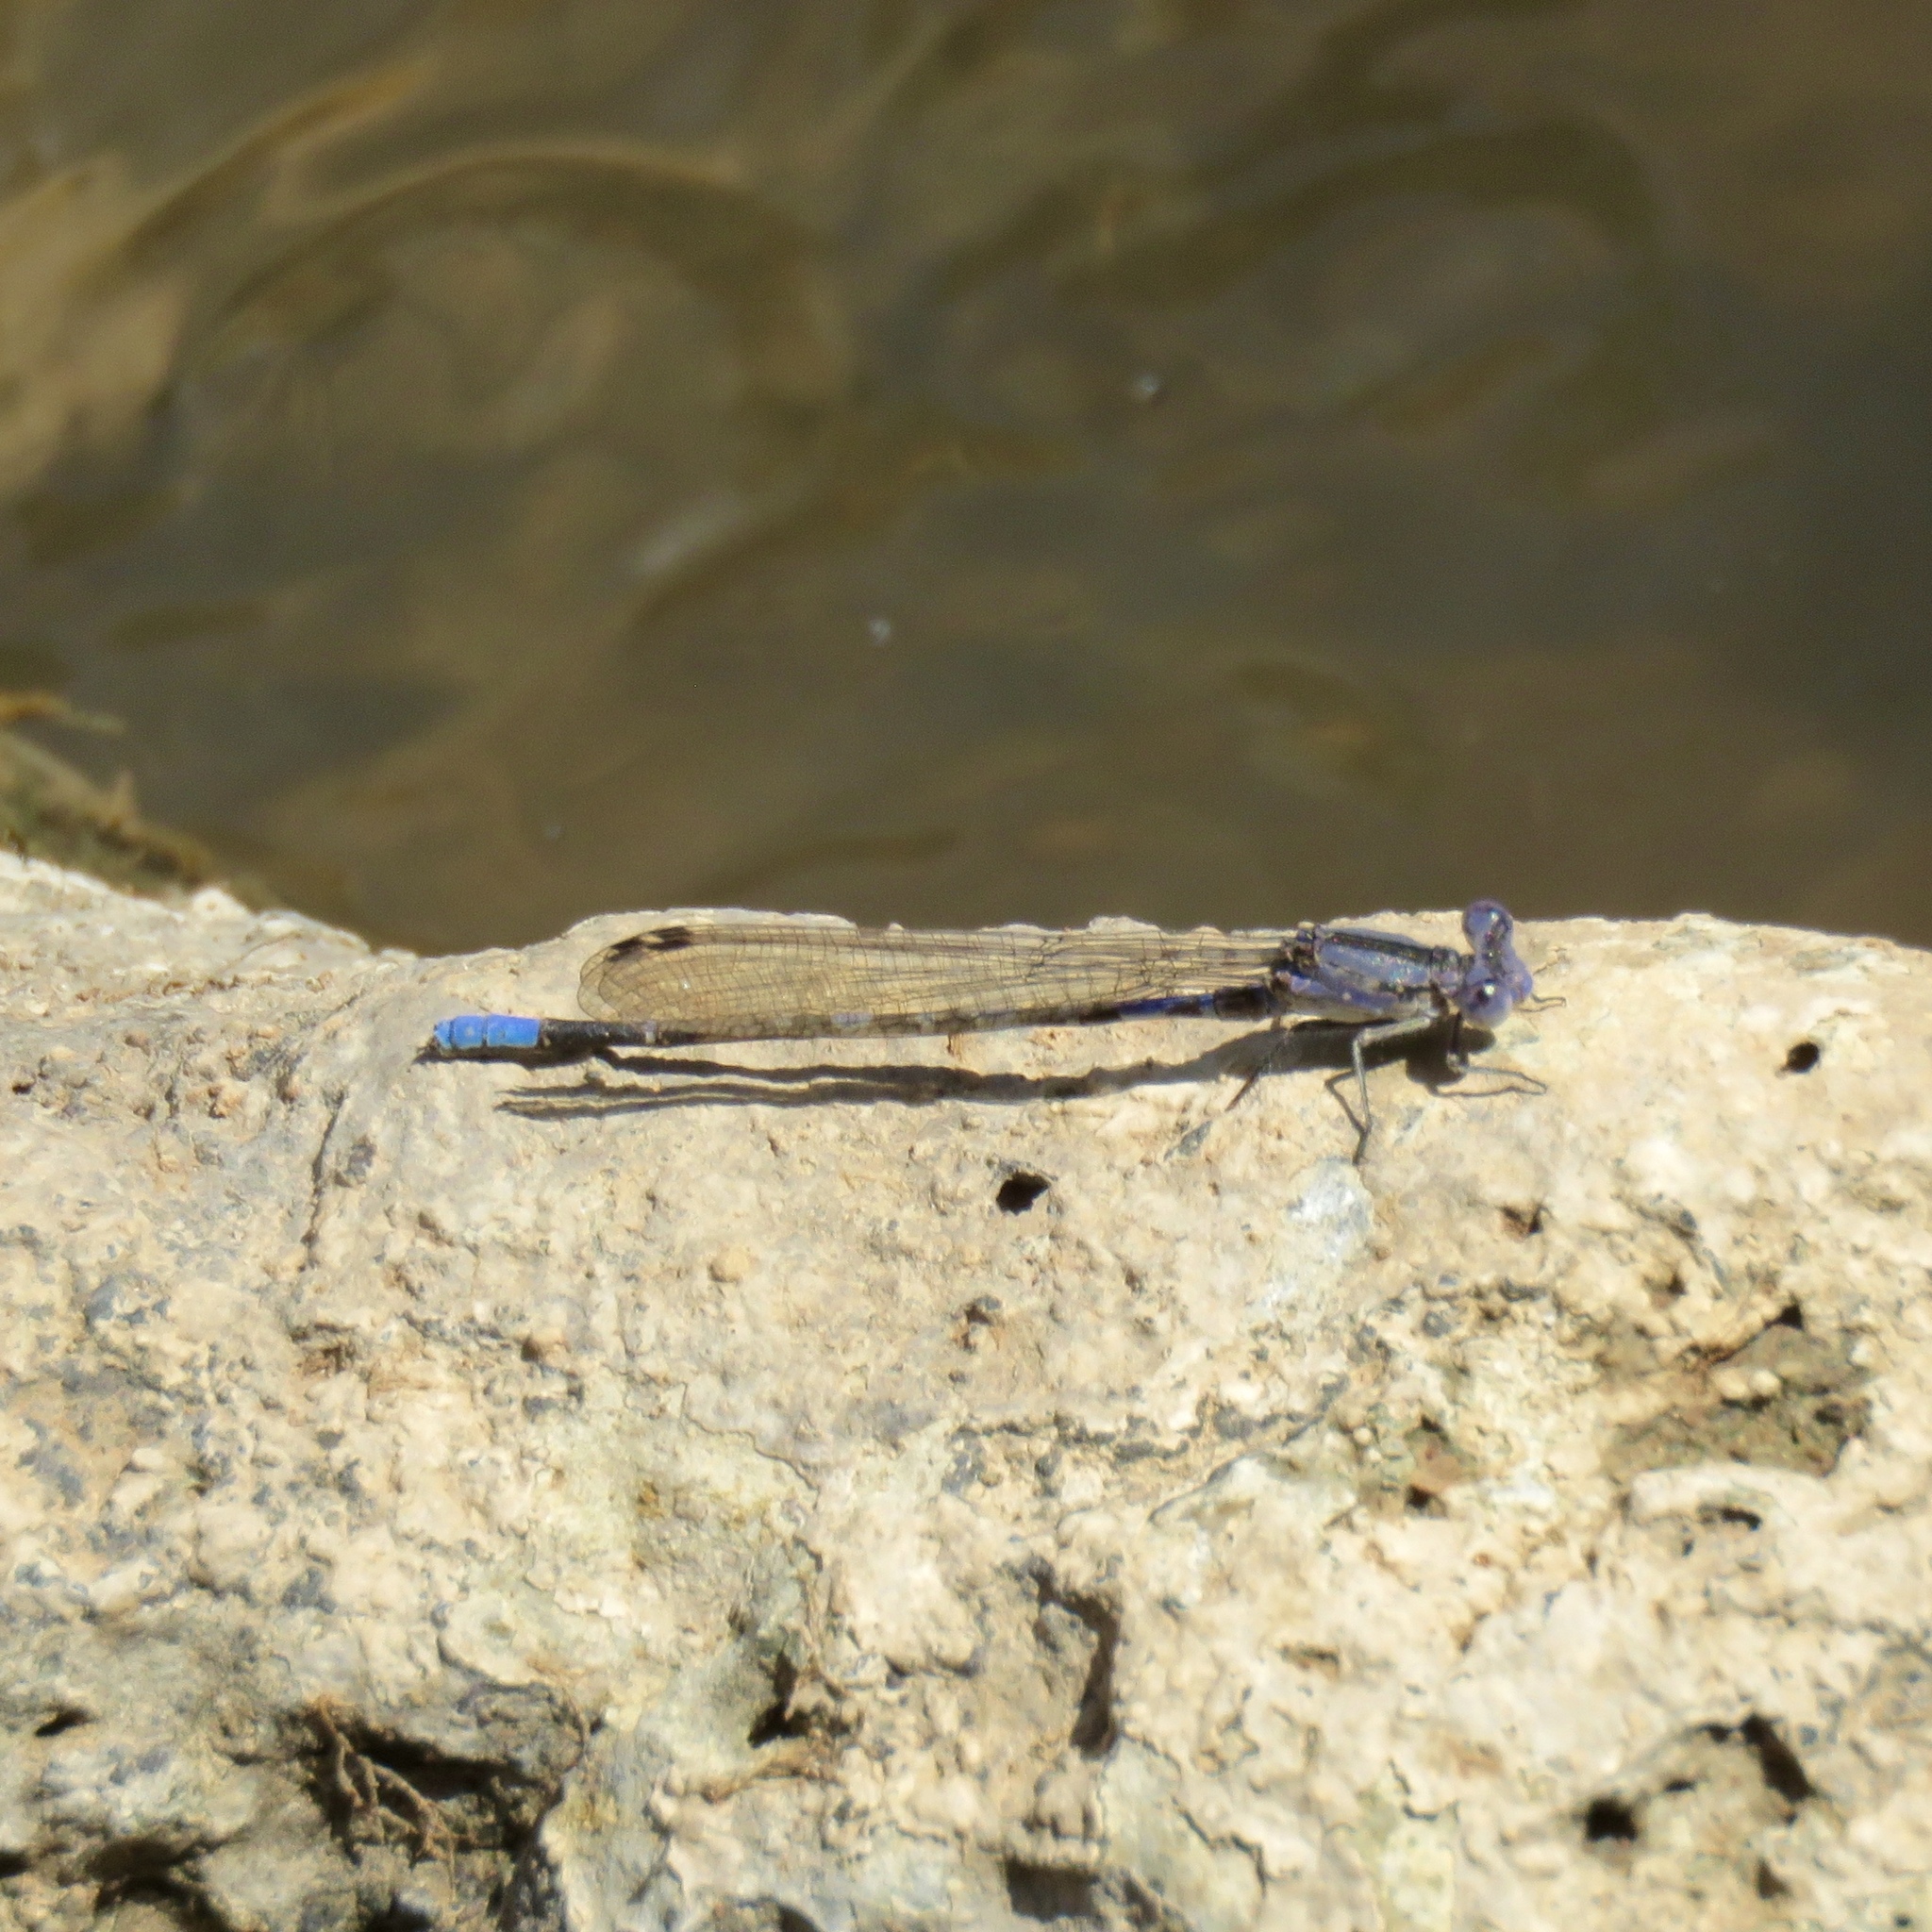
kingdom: Animalia
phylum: Arthropoda
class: Insecta
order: Odonata
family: Coenagrionidae
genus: Argia
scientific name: Argia immunda
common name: Kiowa dancer
